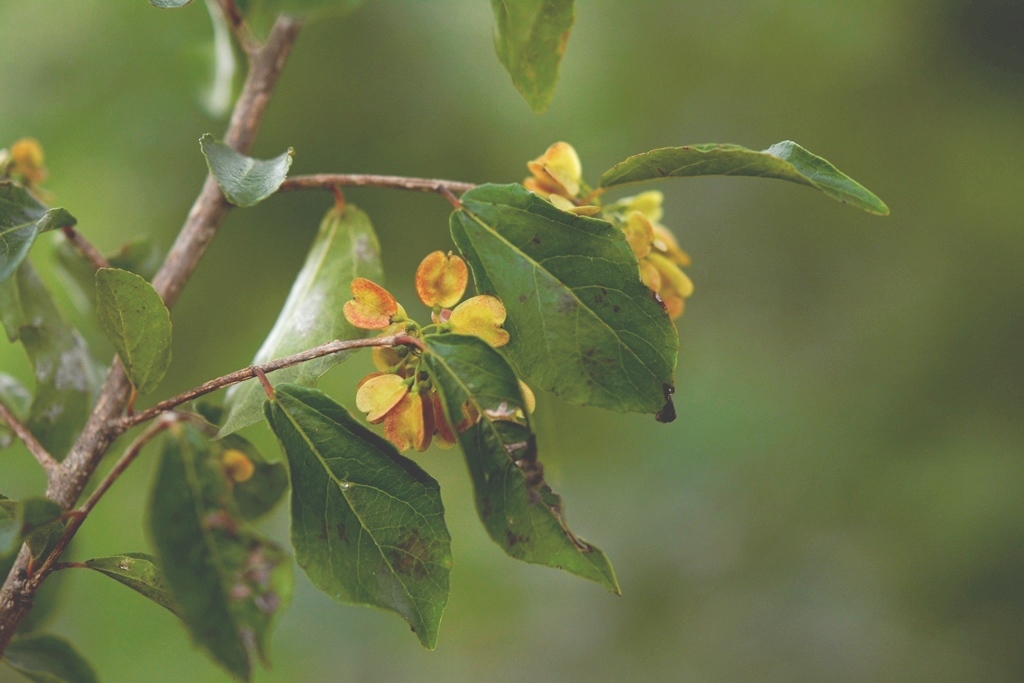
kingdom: Plantae
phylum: Tracheophyta
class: Magnoliopsida
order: Celastrales
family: Celastraceae
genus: Wimmeria
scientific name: Wimmeria pubescens
